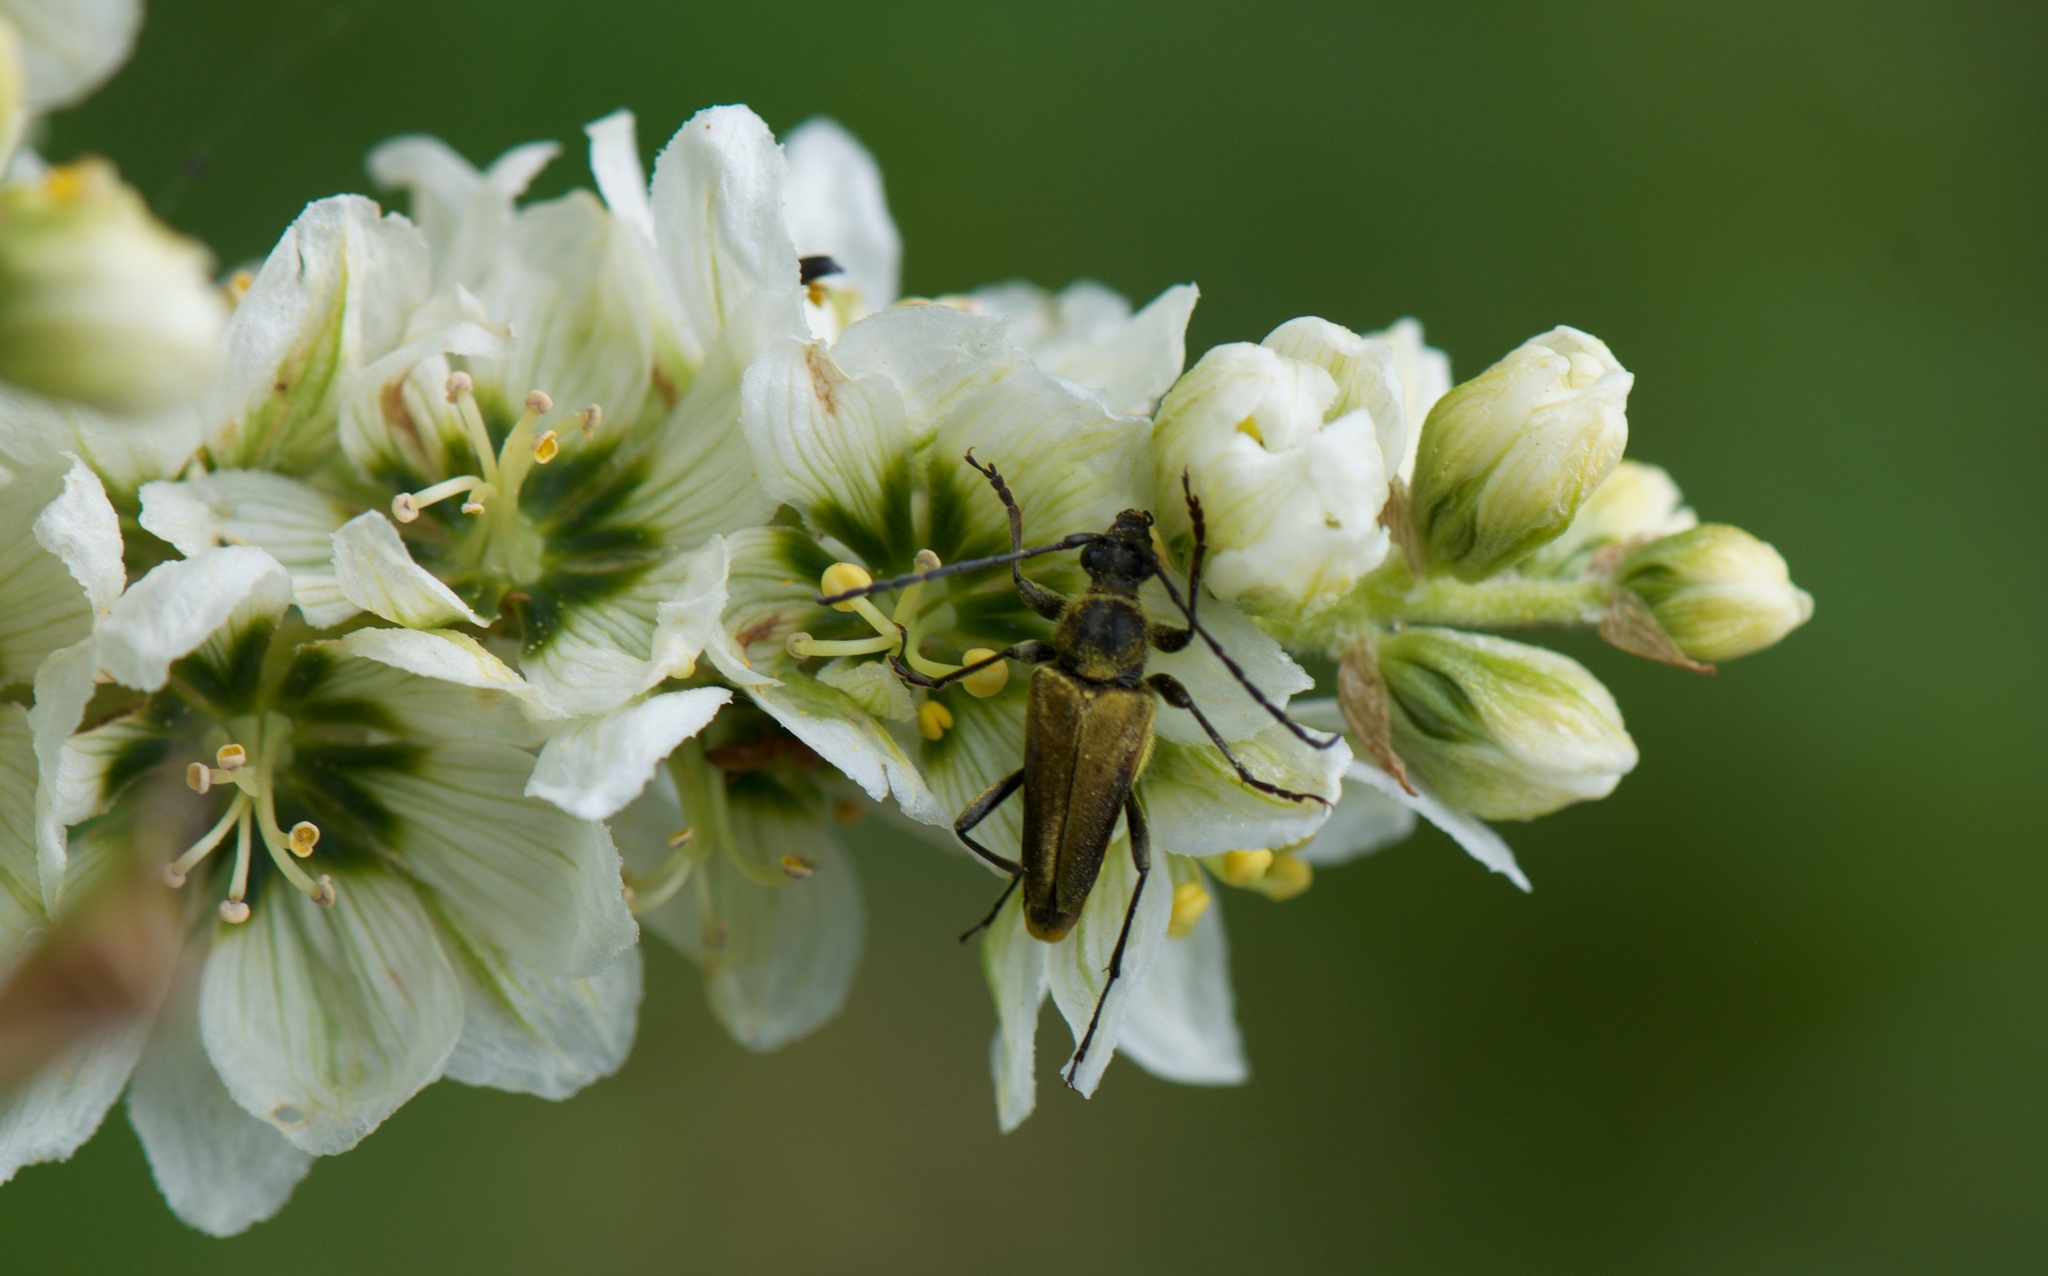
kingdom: Animalia
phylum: Arthropoda
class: Insecta
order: Coleoptera
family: Cerambycidae
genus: Cosmosalia
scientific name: Cosmosalia chrysocoma
